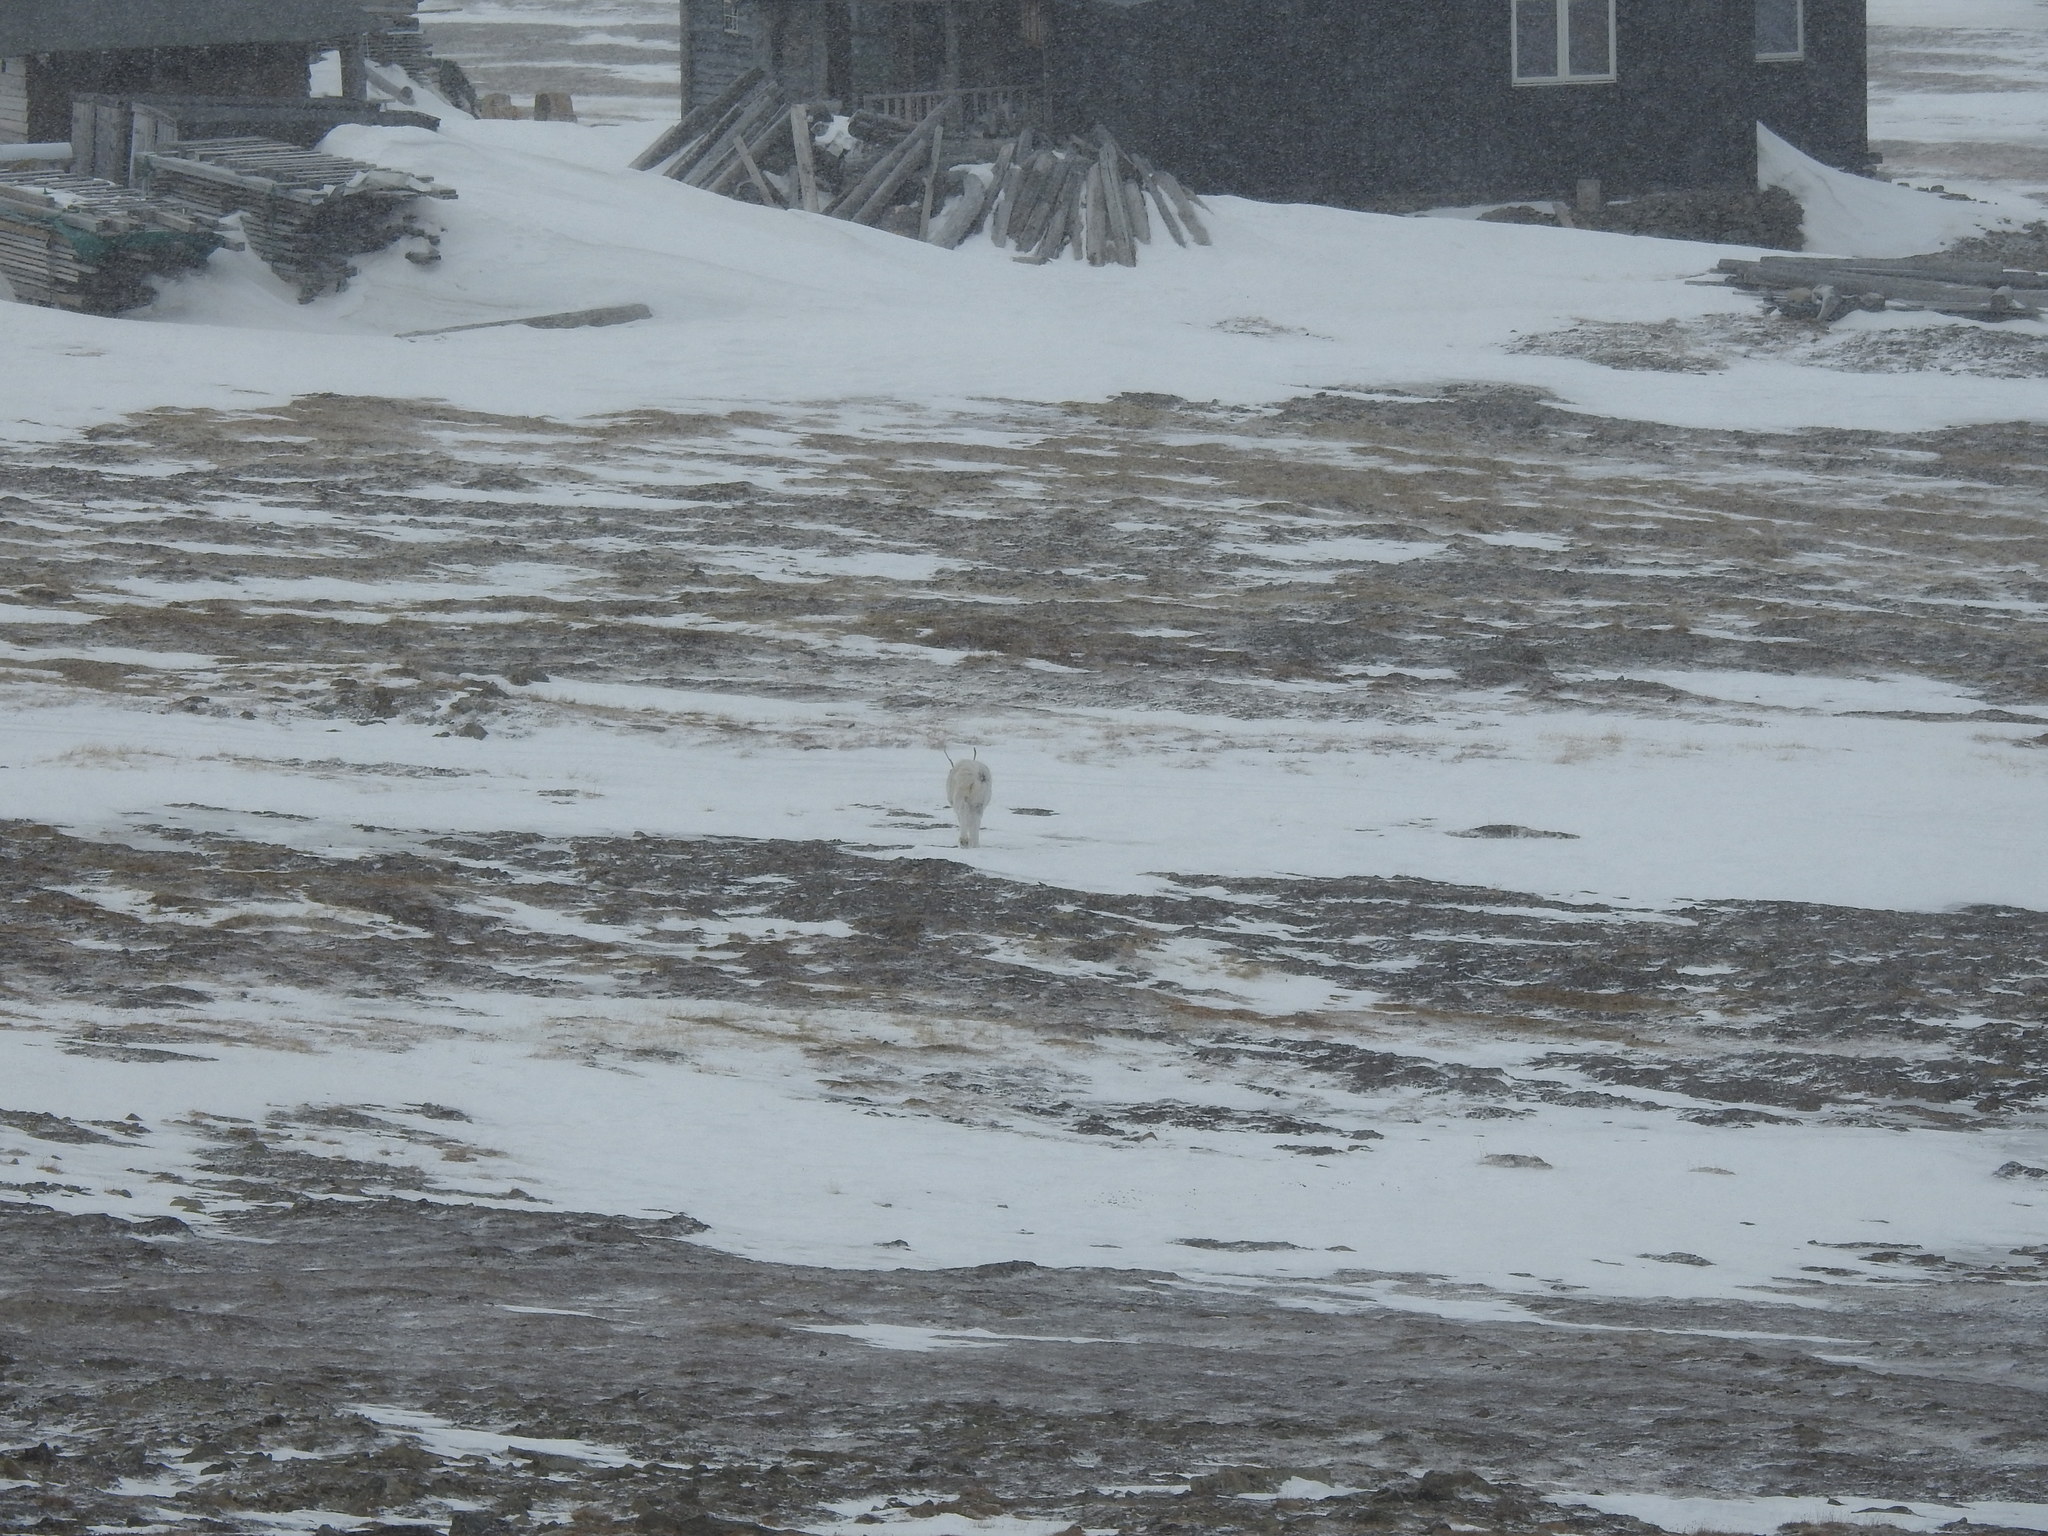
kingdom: Animalia
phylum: Chordata
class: Mammalia
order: Artiodactyla
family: Cervidae
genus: Rangifer
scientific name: Rangifer tarandus
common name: Reindeer
